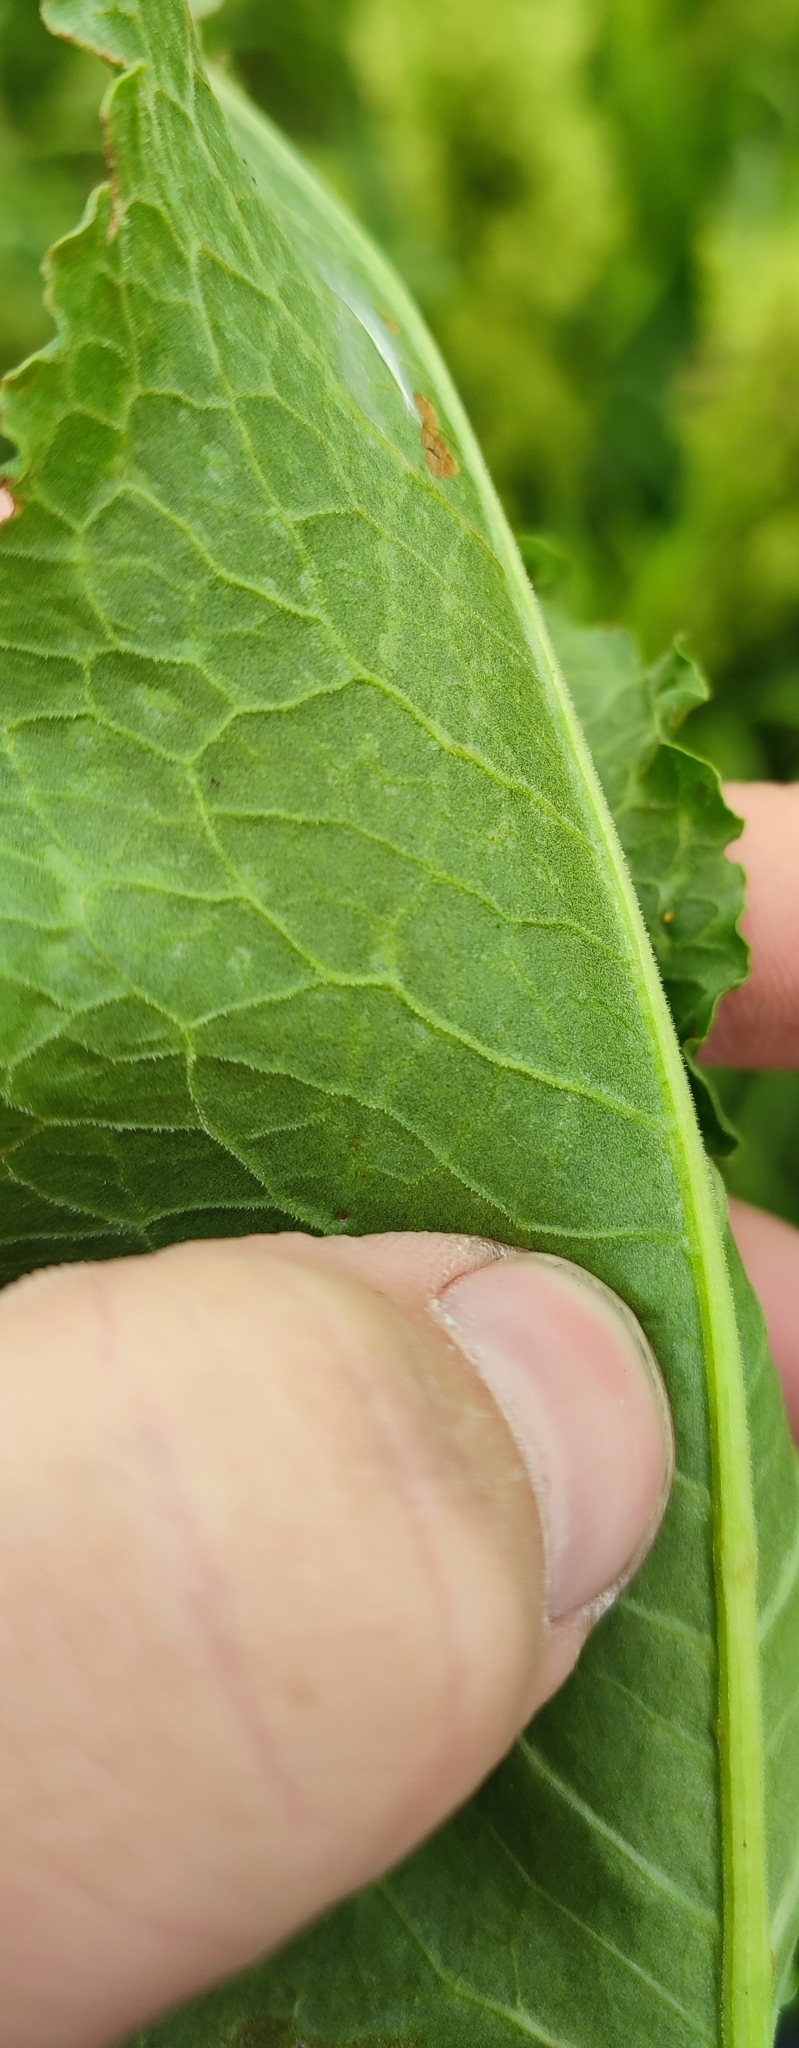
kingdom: Plantae
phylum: Tracheophyta
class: Magnoliopsida
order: Caryophyllales
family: Polygonaceae
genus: Rumex
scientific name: Rumex confertus
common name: Russian dock
